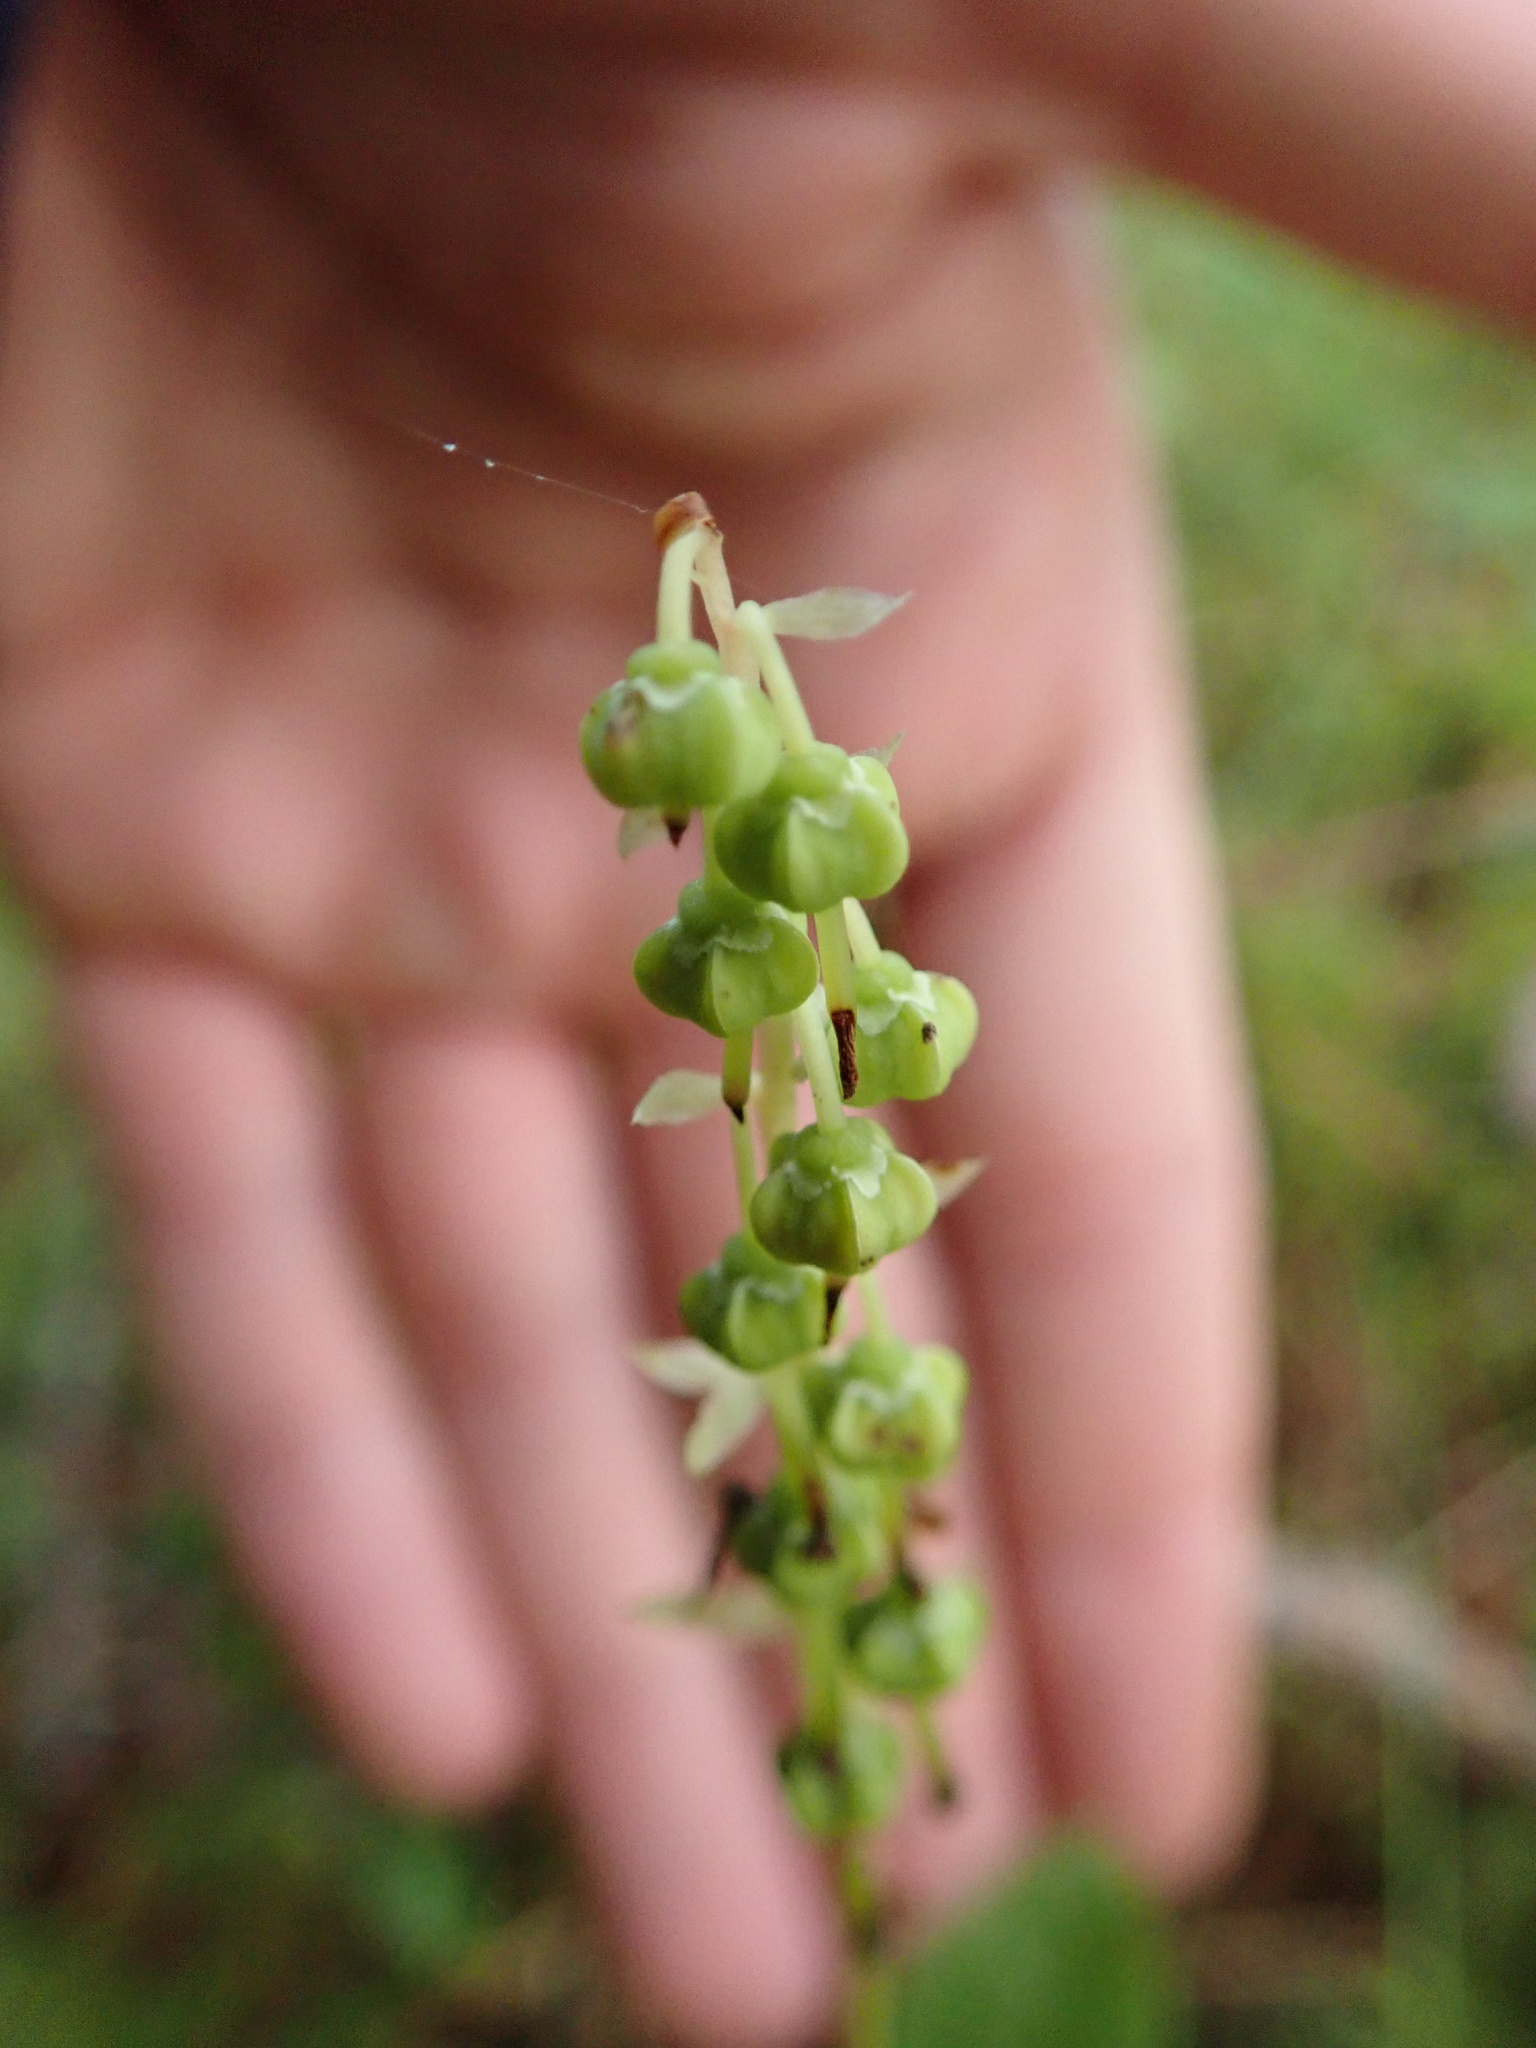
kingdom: Plantae
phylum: Tracheophyta
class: Magnoliopsida
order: Ericales
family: Ericaceae
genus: Orthilia
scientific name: Orthilia secunda
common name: One-sided orthilia
